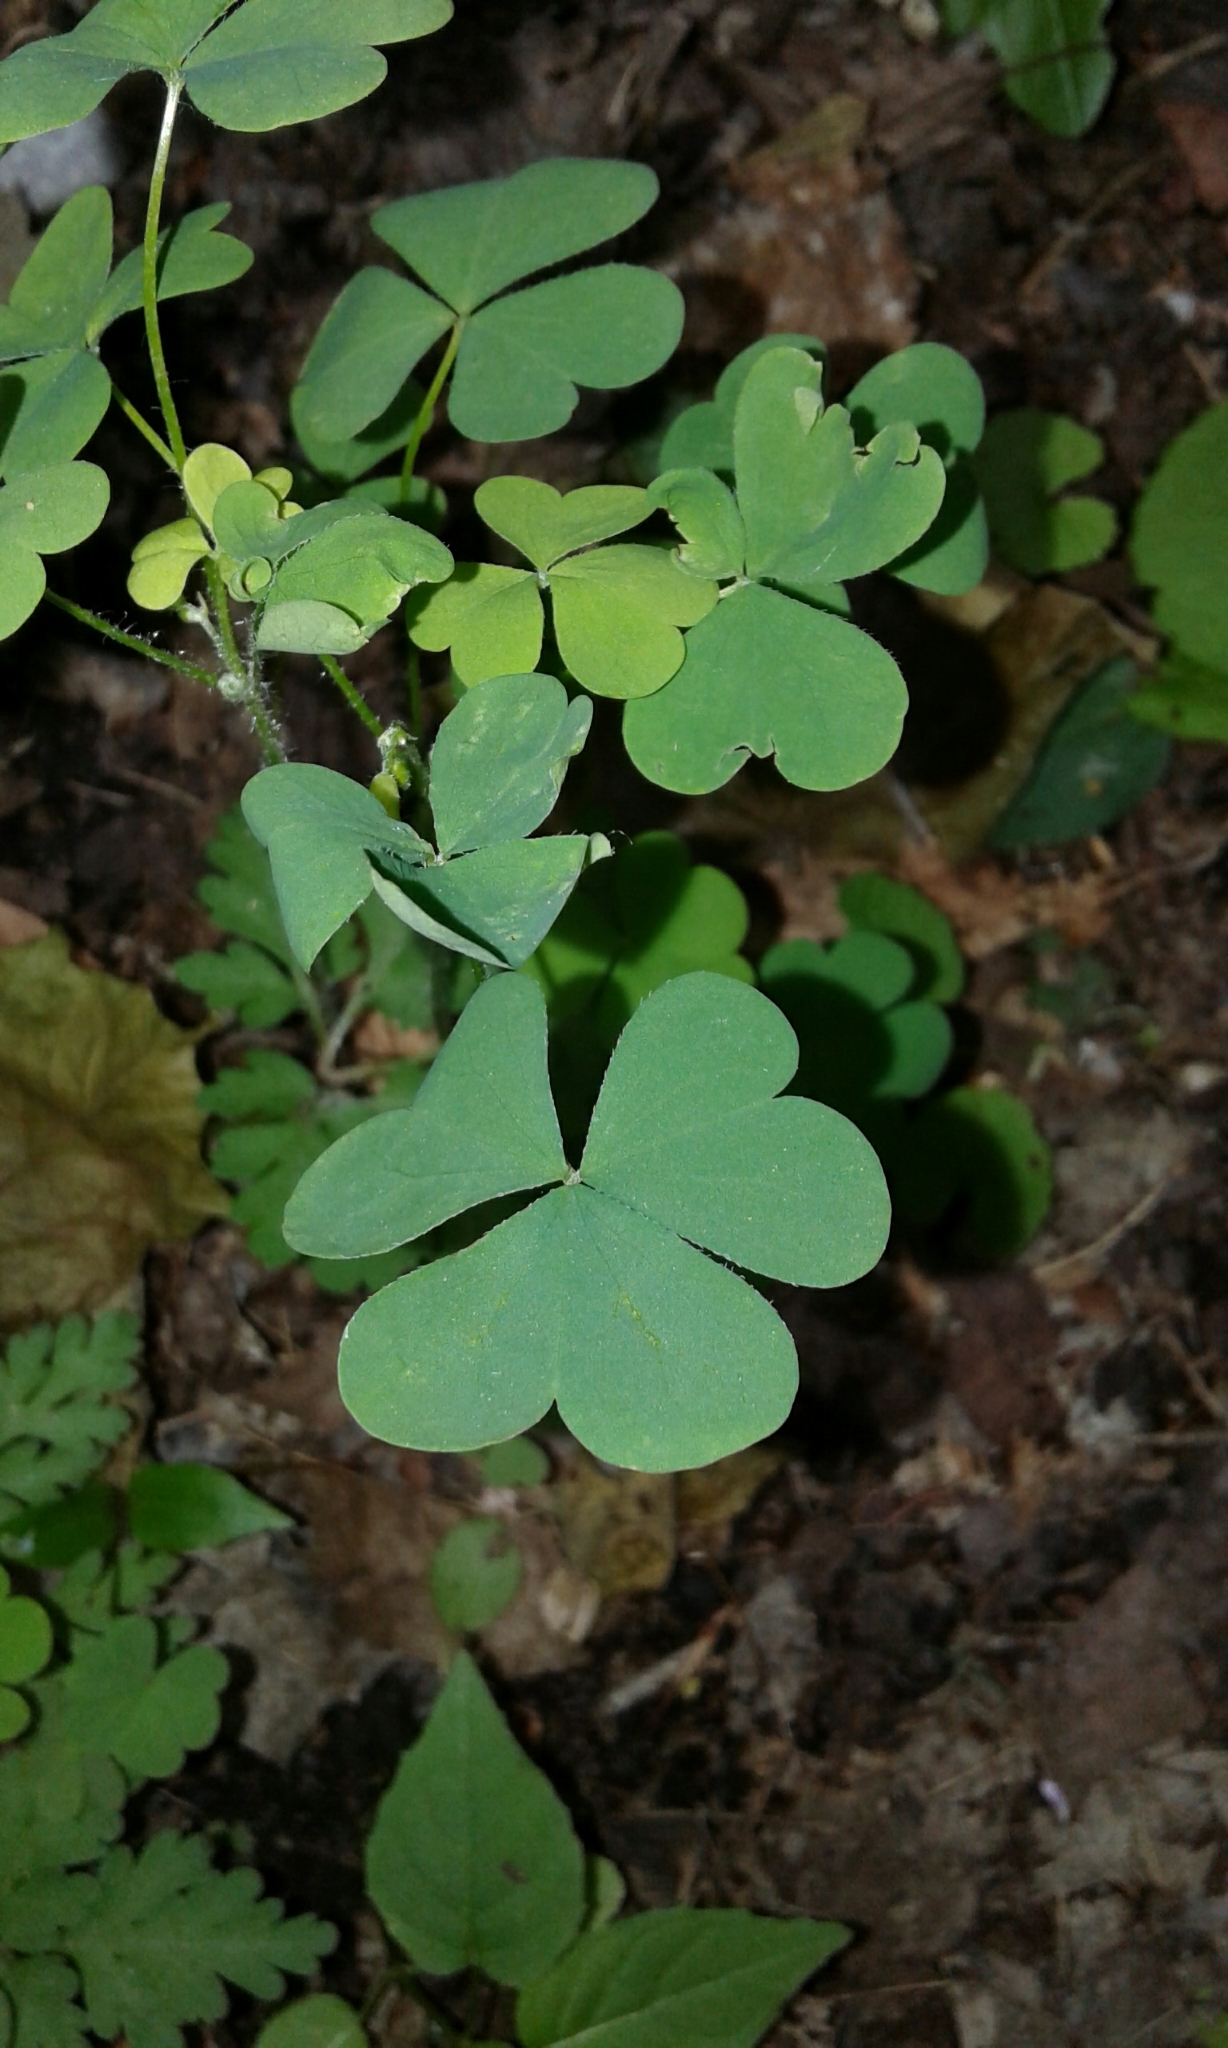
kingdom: Plantae
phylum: Tracheophyta
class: Magnoliopsida
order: Oxalidales
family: Oxalidaceae
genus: Oxalis
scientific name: Oxalis stricta
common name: Upright yellow-sorrel
